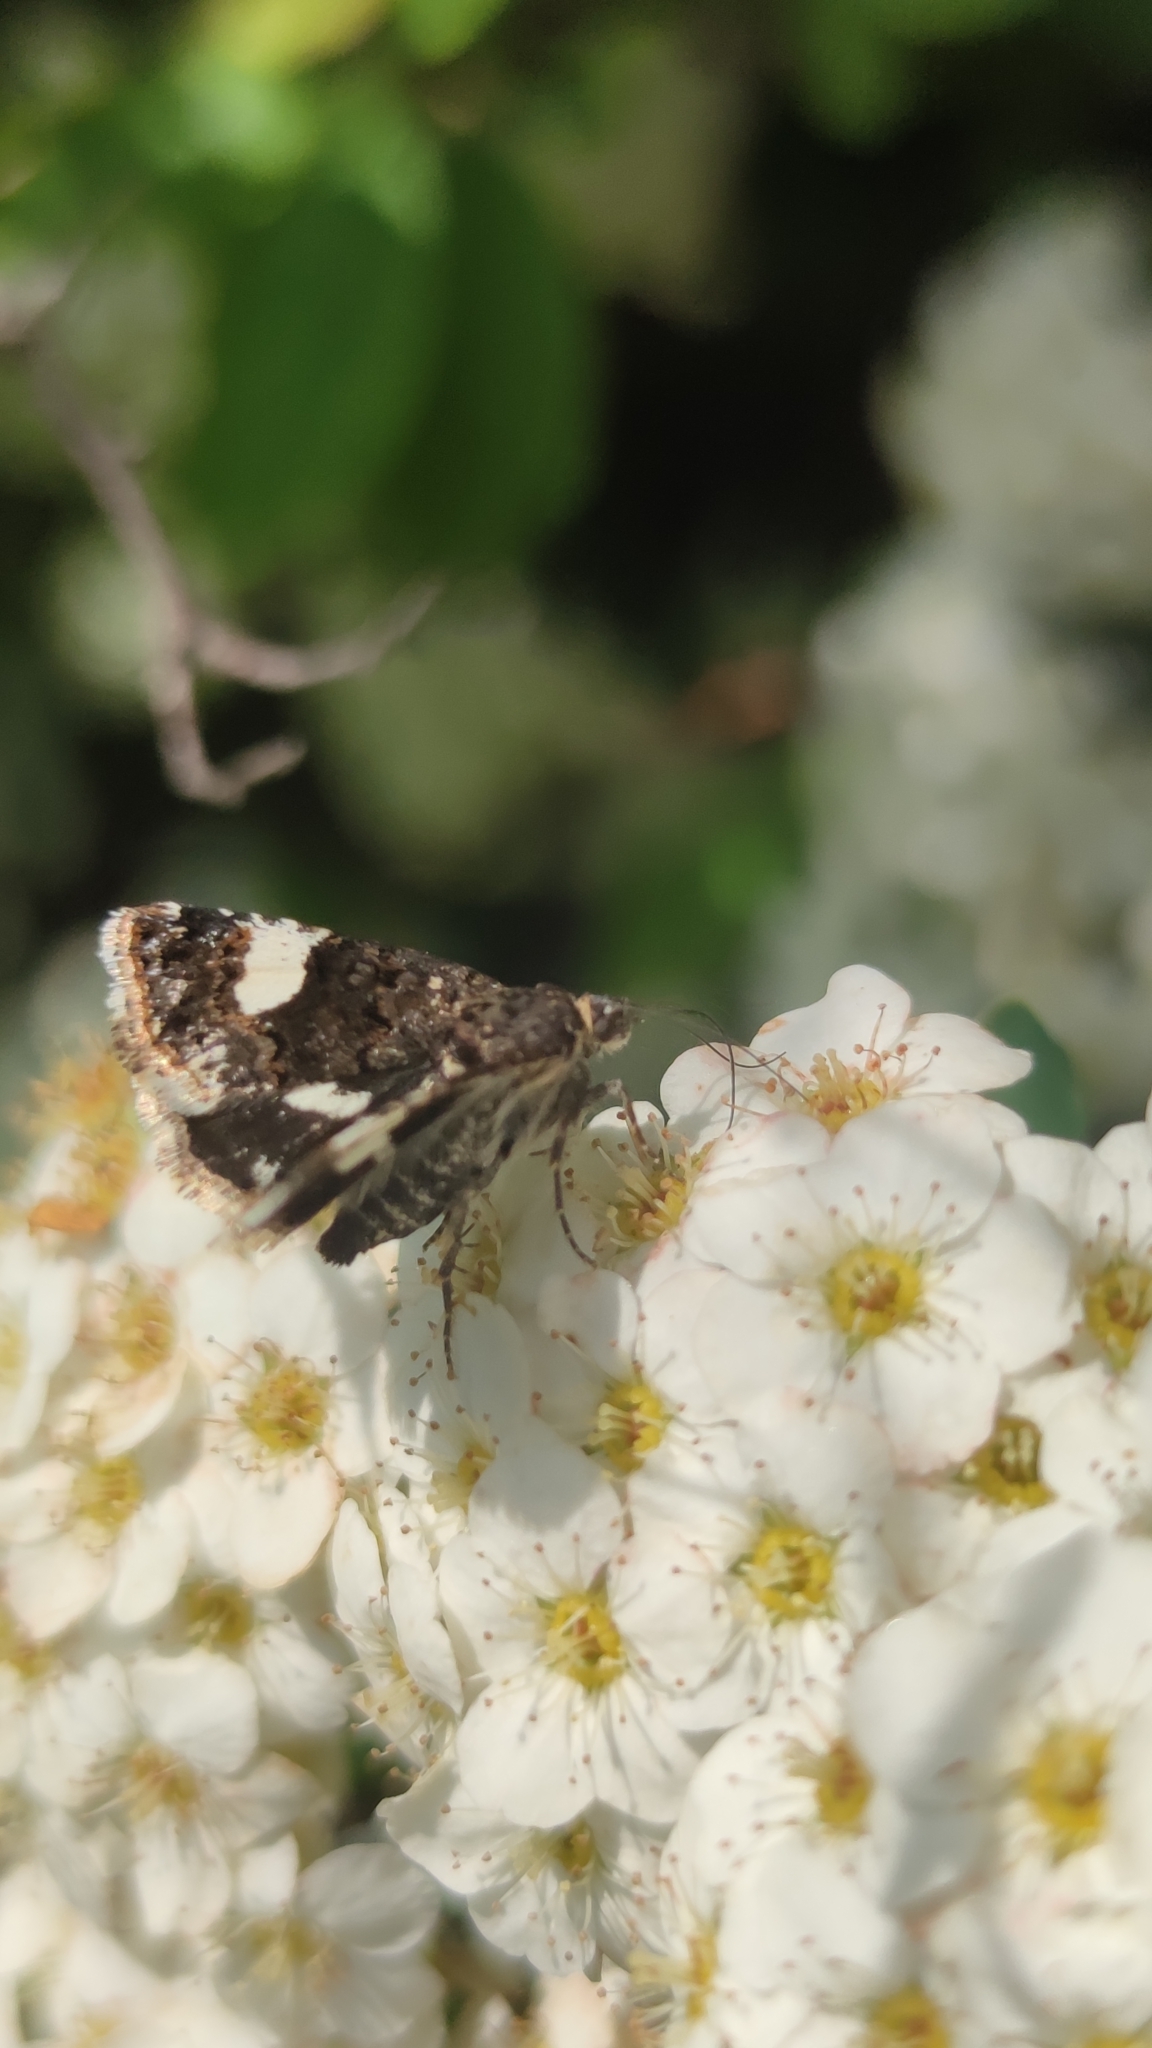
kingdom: Animalia
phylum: Arthropoda
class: Insecta
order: Lepidoptera
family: Erebidae
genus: Tyta
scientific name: Tyta luctuosa
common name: Four-spotted
